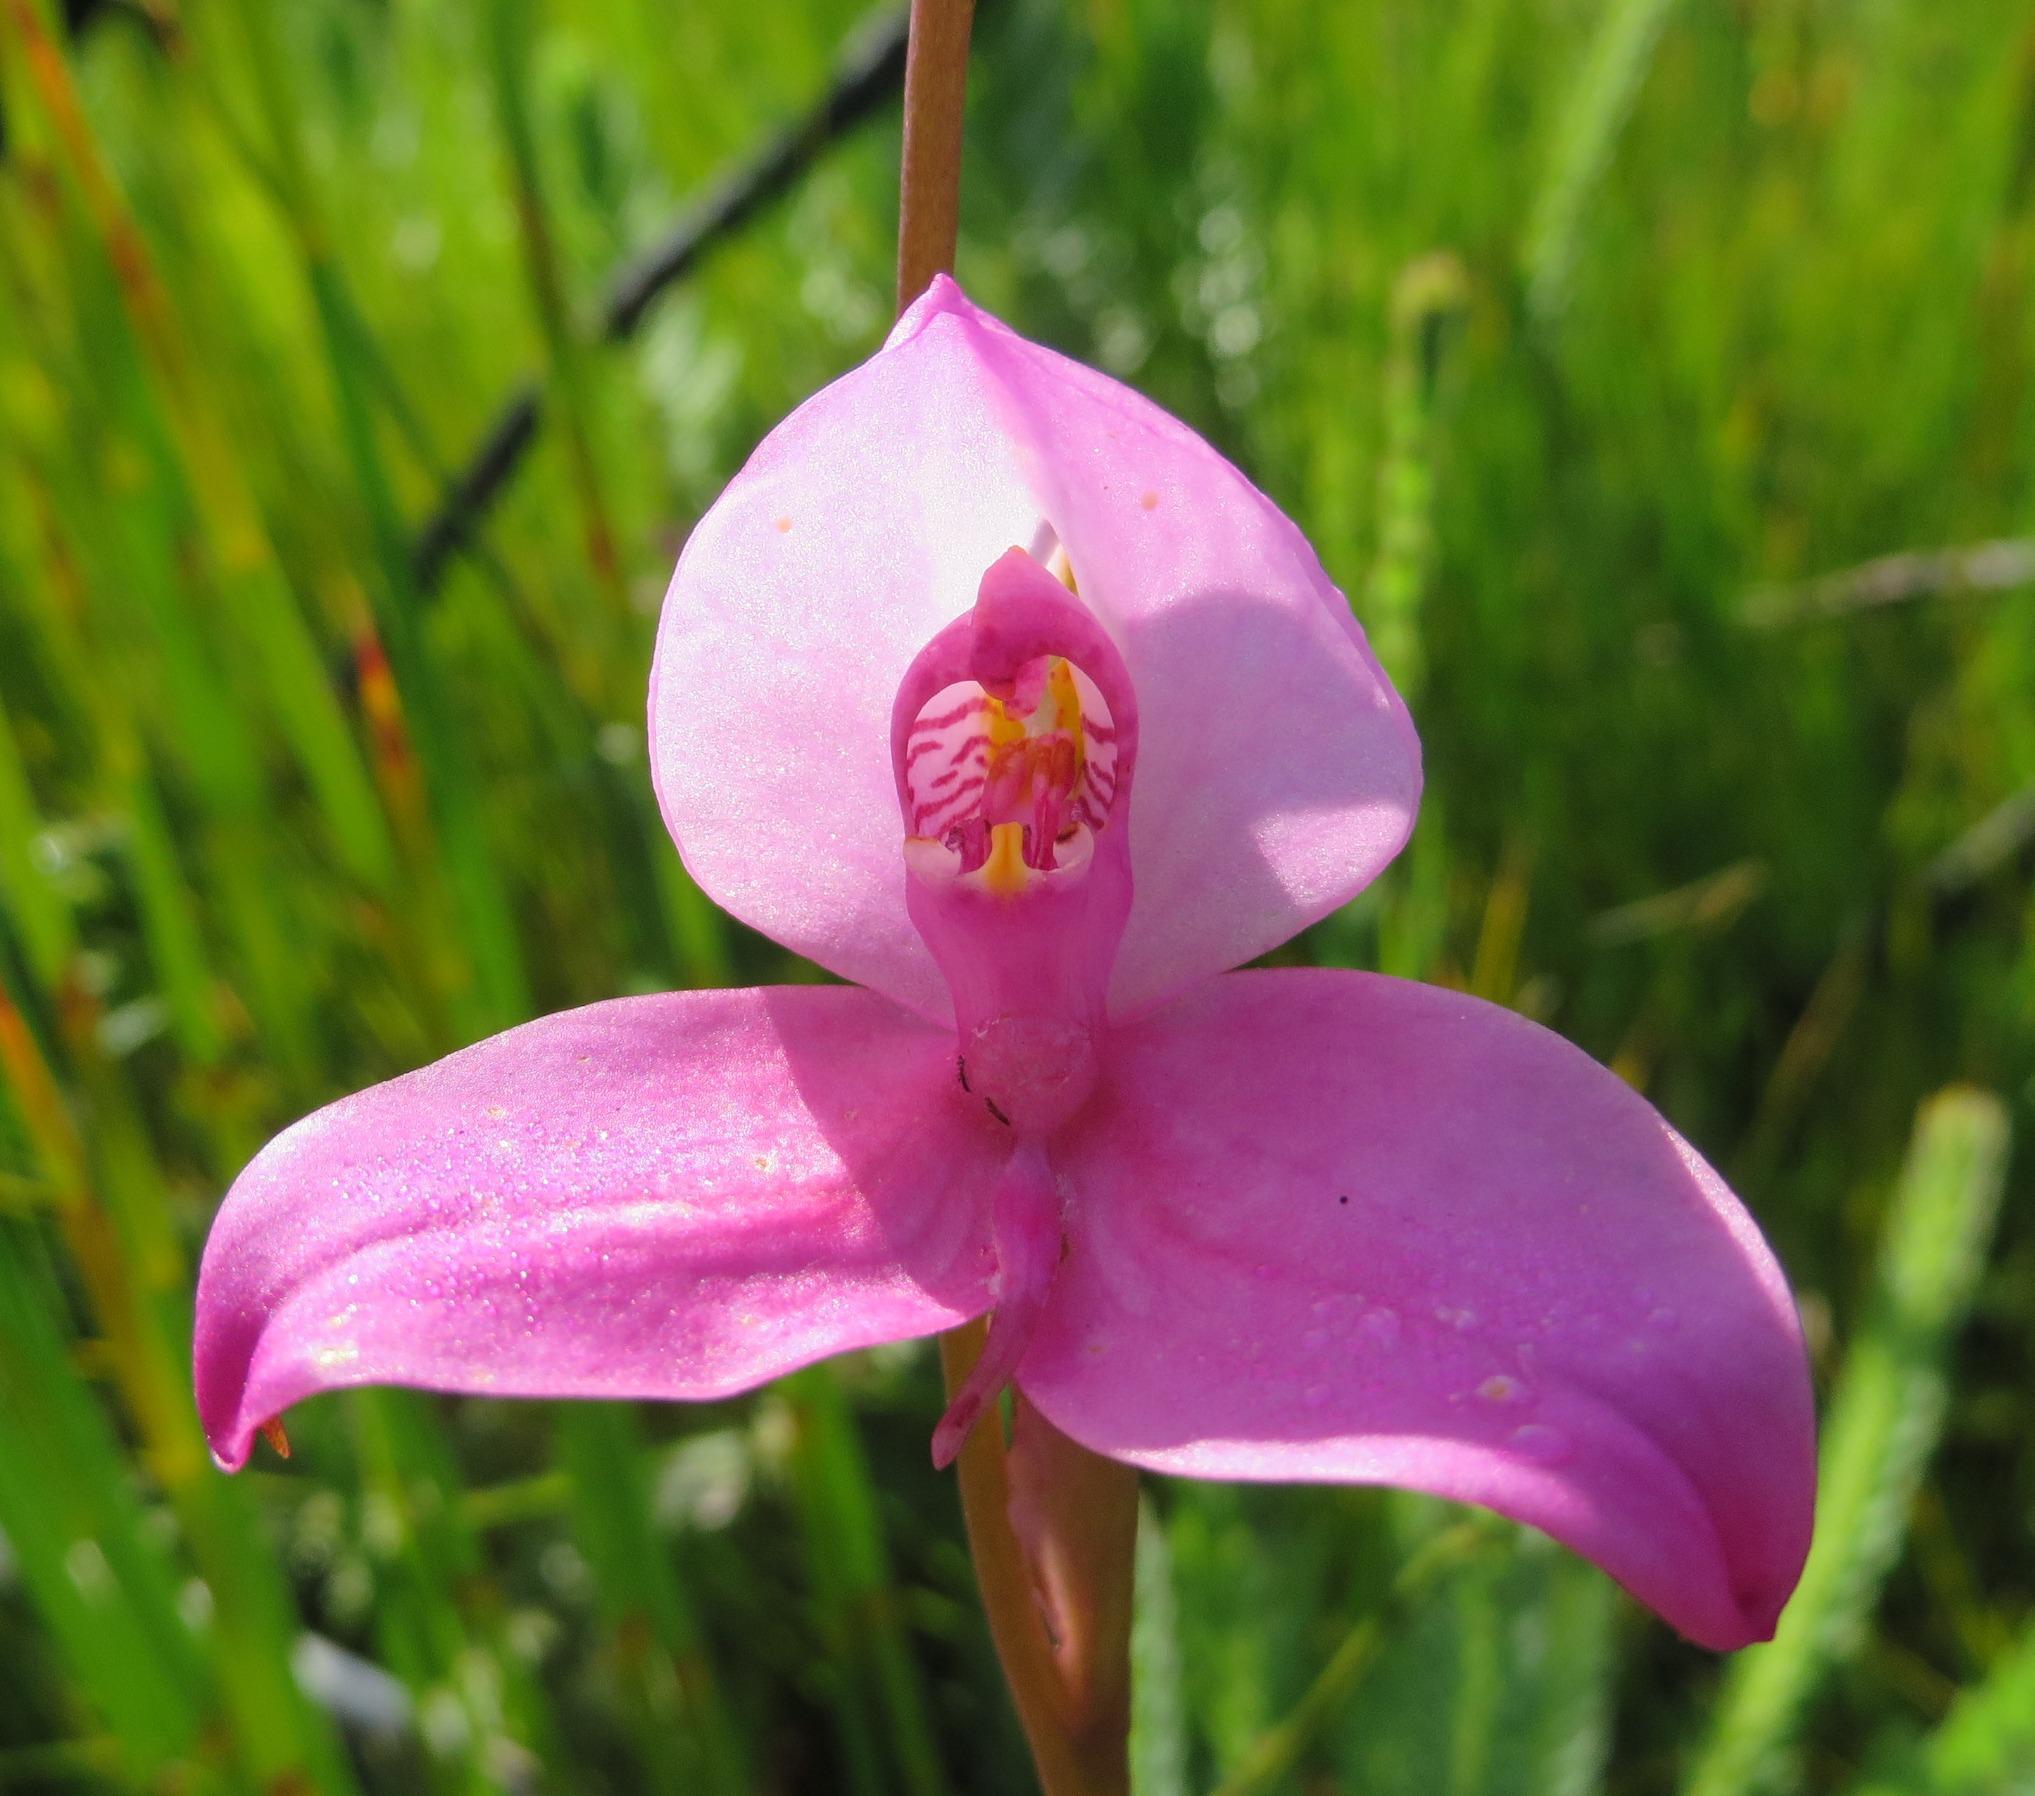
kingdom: Plantae
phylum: Tracheophyta
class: Liliopsida
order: Asparagales
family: Orchidaceae
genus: Disa
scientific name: Disa racemosa
